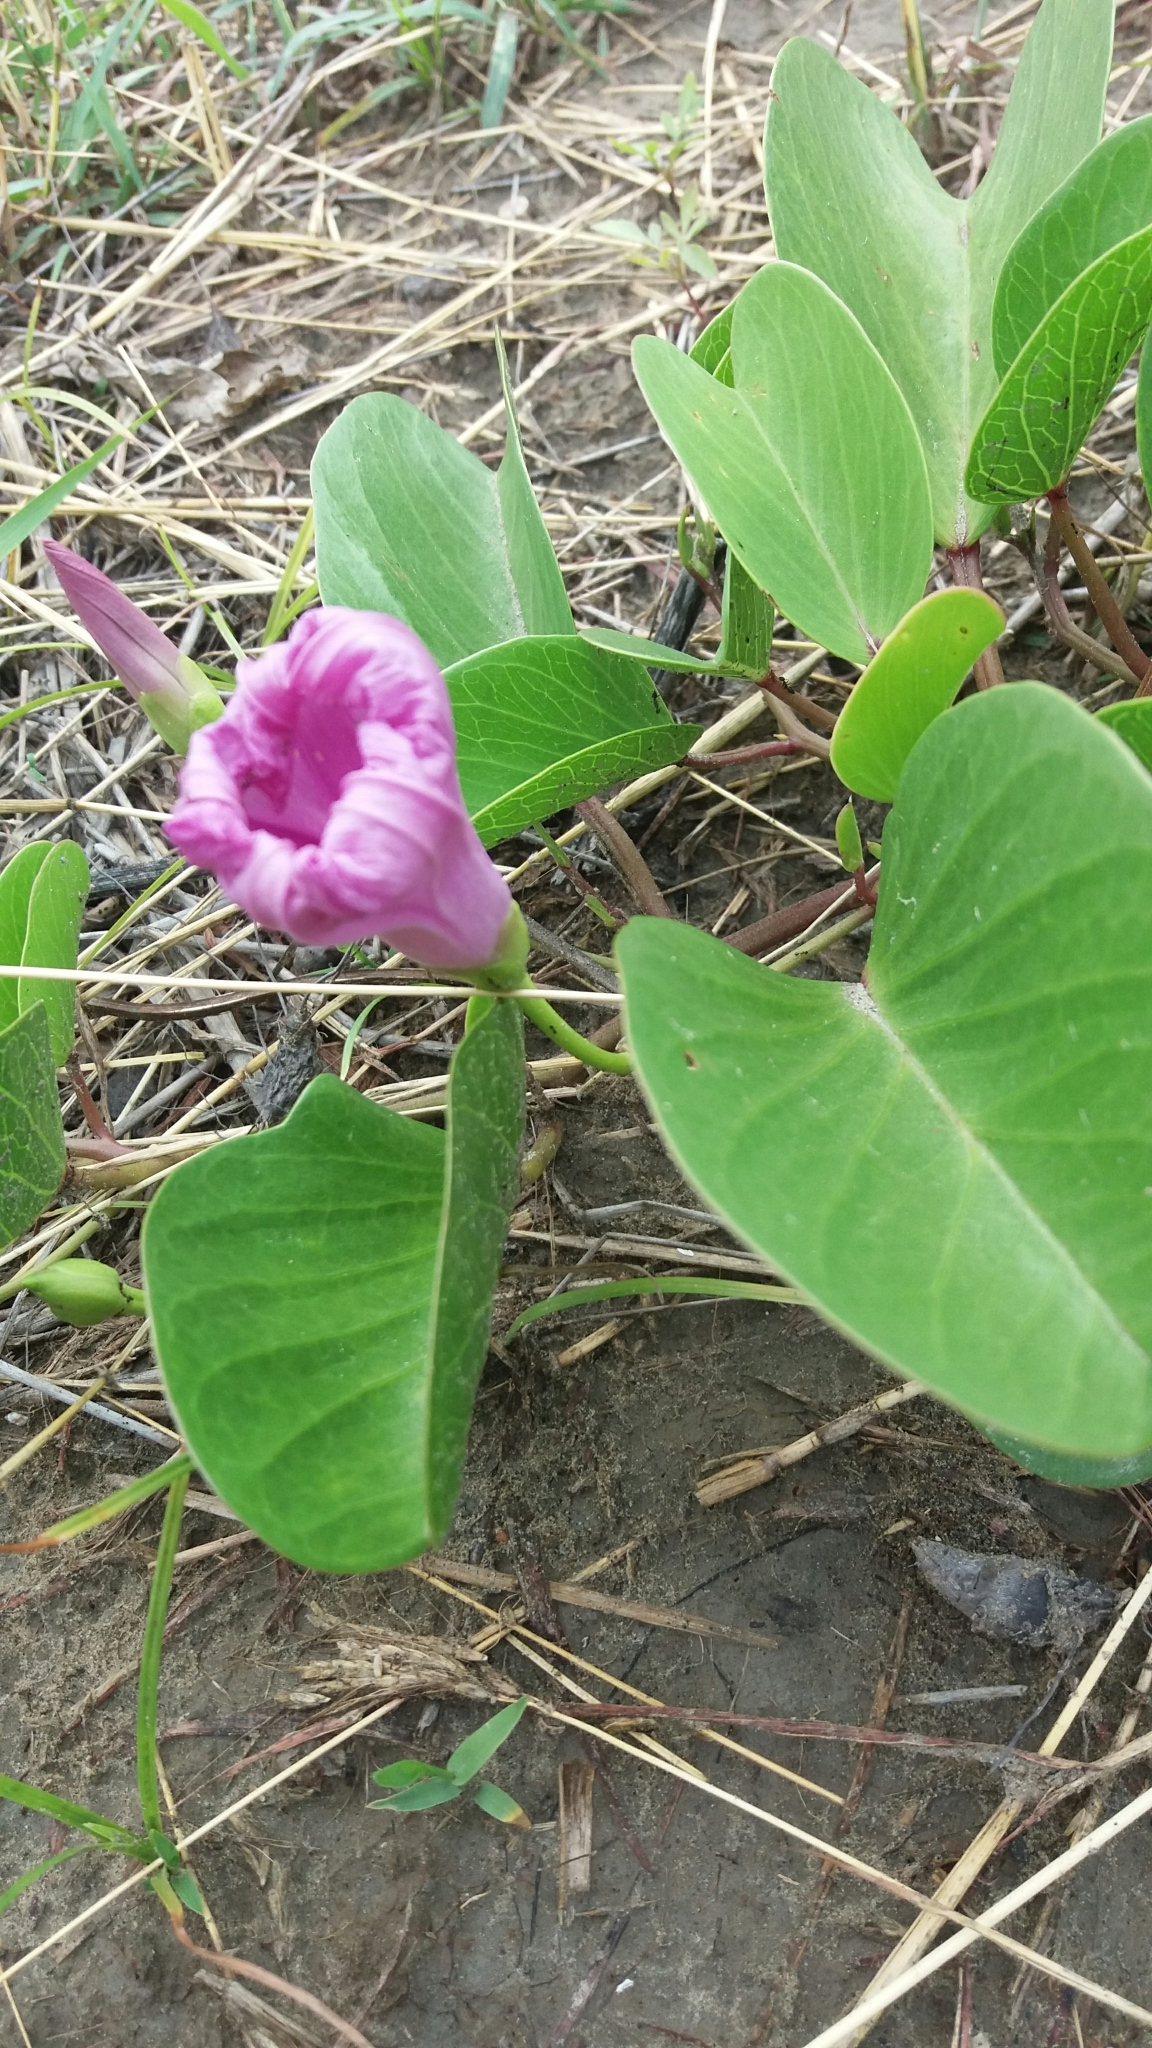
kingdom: Plantae
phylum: Tracheophyta
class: Magnoliopsida
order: Solanales
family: Convolvulaceae
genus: Ipomoea
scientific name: Ipomoea pes-caprae
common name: Beach morning glory
